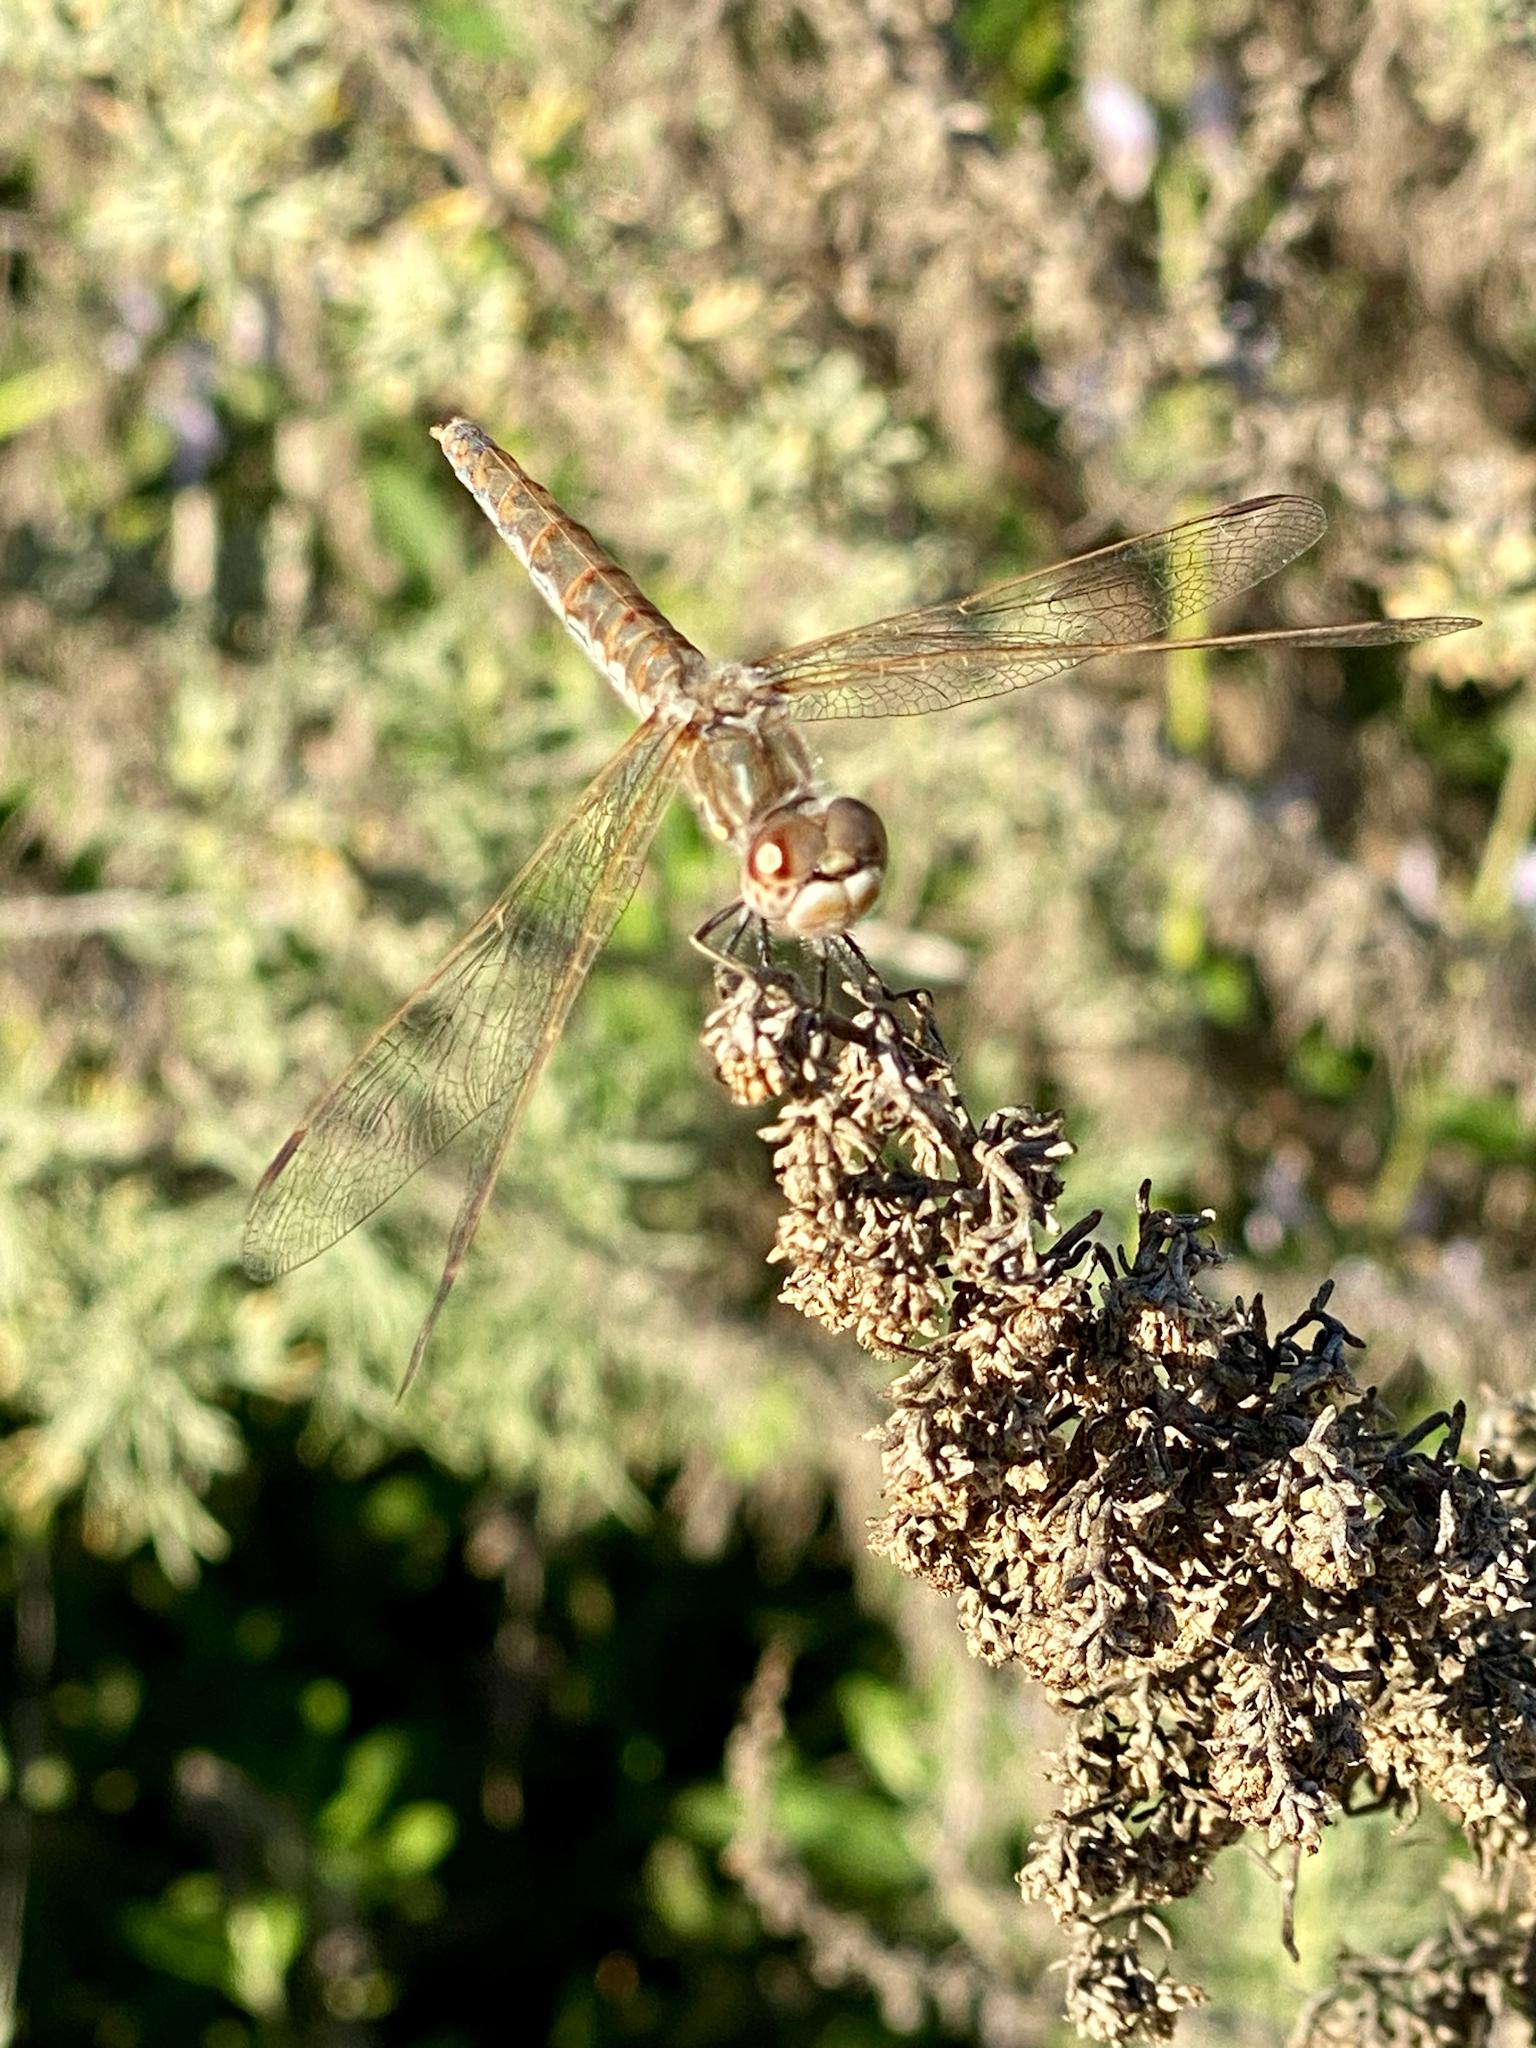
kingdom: Animalia
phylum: Arthropoda
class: Insecta
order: Odonata
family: Libellulidae
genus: Sympetrum
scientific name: Sympetrum corruptum
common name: Variegated meadowhawk
